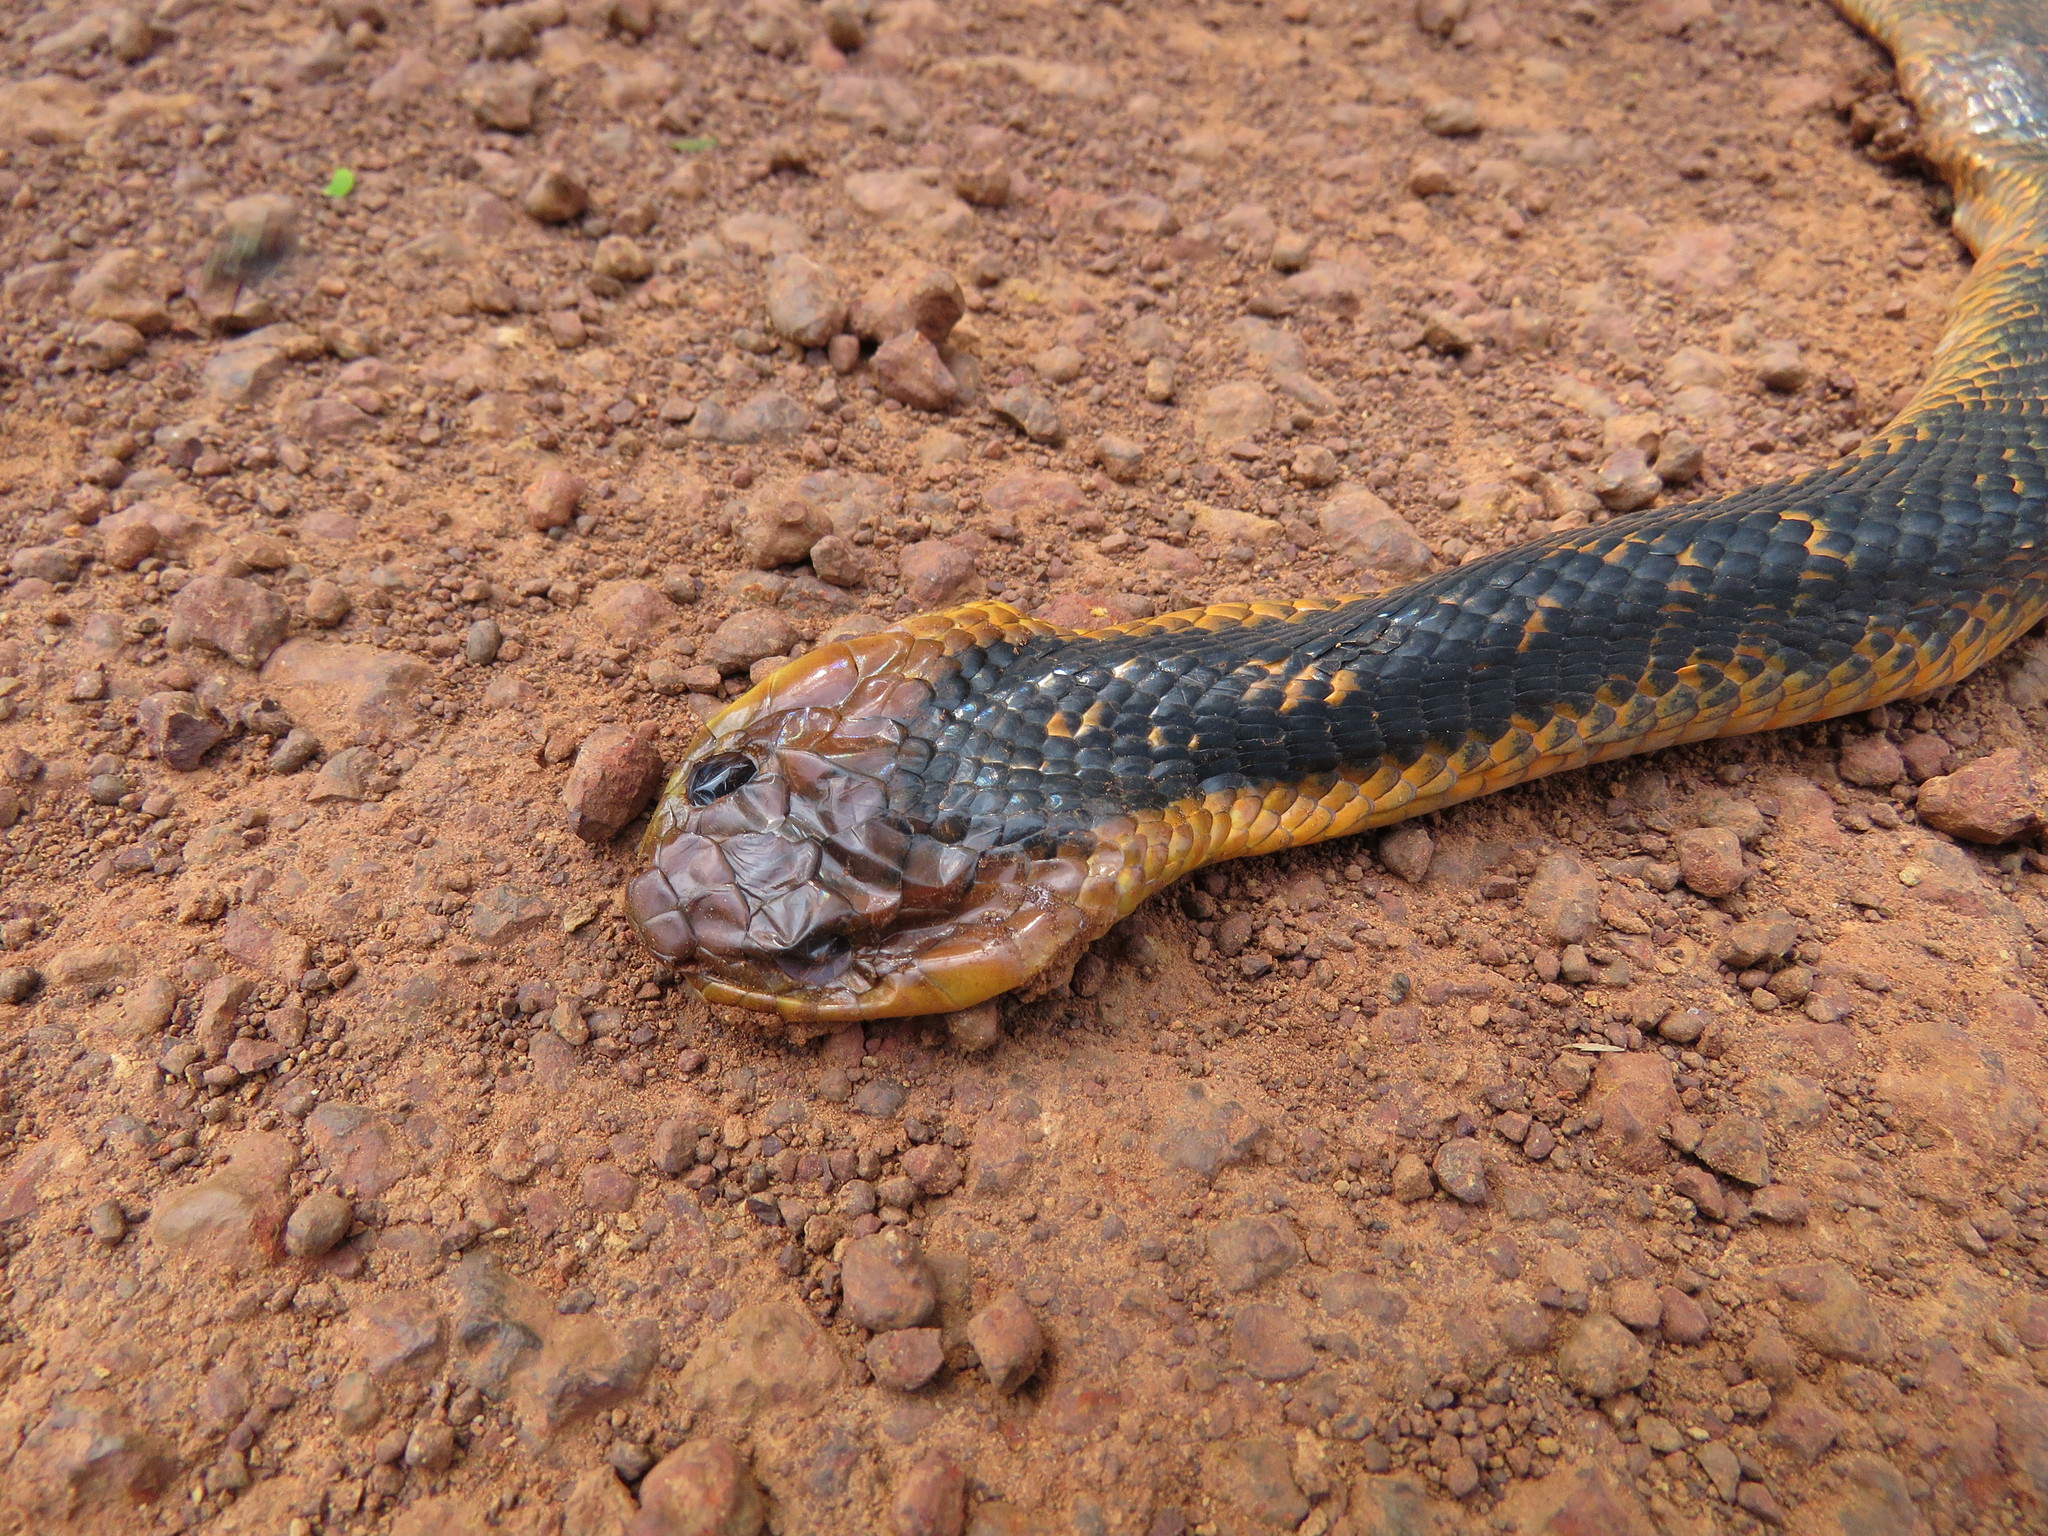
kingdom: Animalia
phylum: Chordata
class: Squamata
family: Colubridae
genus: Xenodon
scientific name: Xenodon severus
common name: Amazon false fer-de-lance
